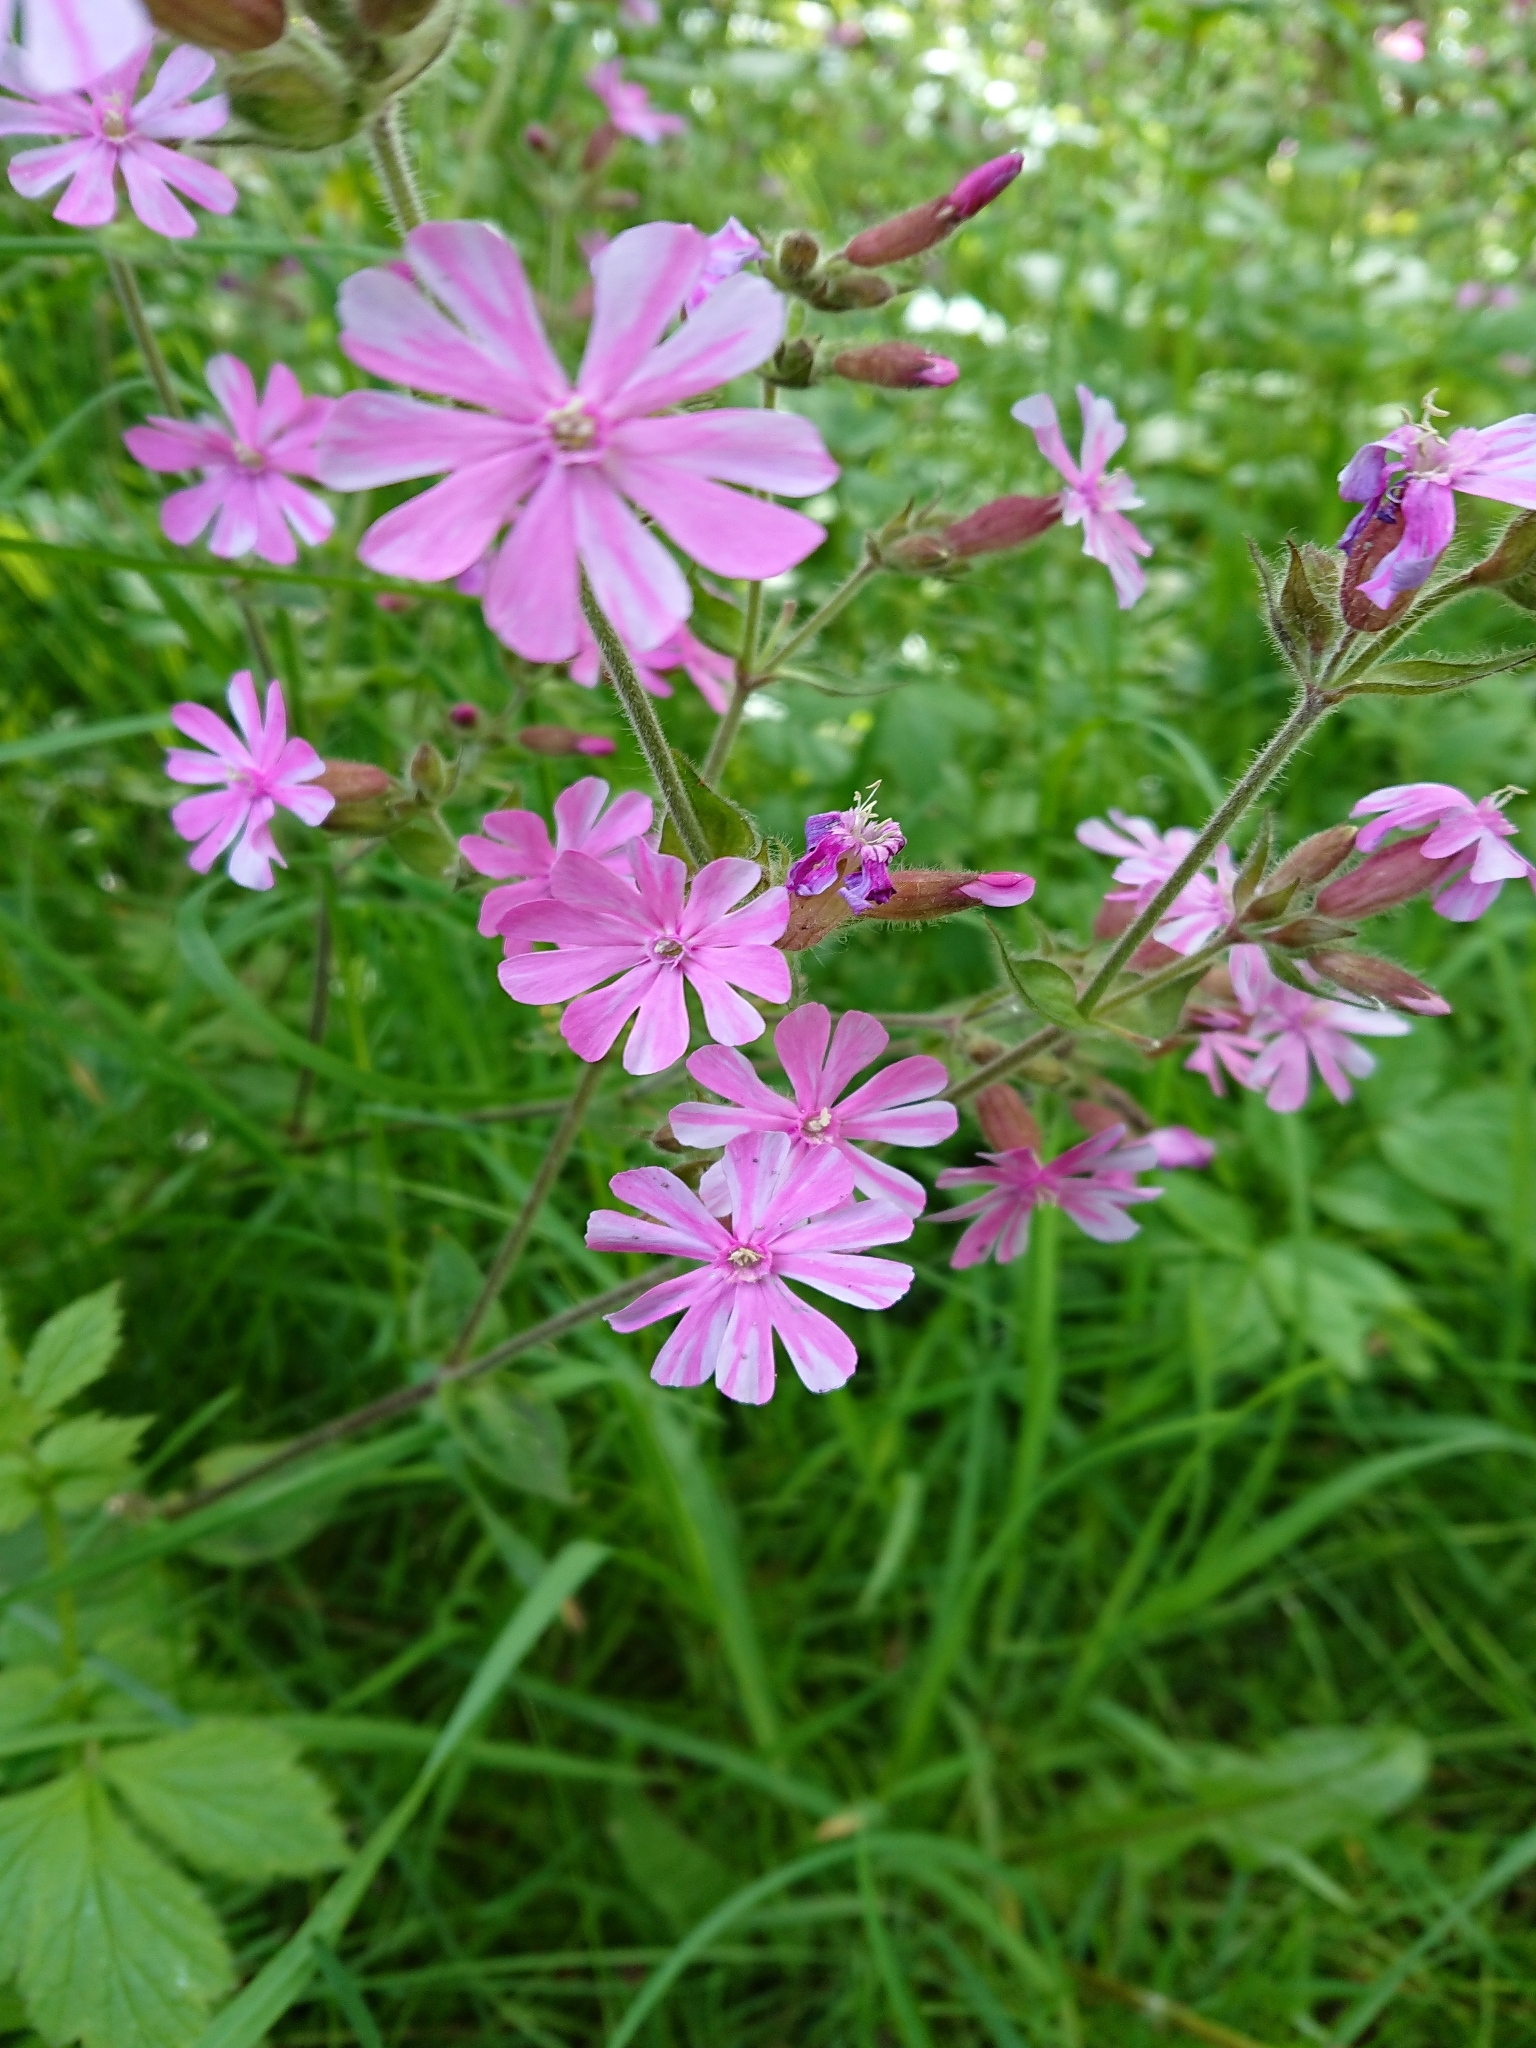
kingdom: Plantae
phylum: Tracheophyta
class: Magnoliopsida
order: Caryophyllales
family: Caryophyllaceae
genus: Silene
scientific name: Silene dioica
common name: Red campion
